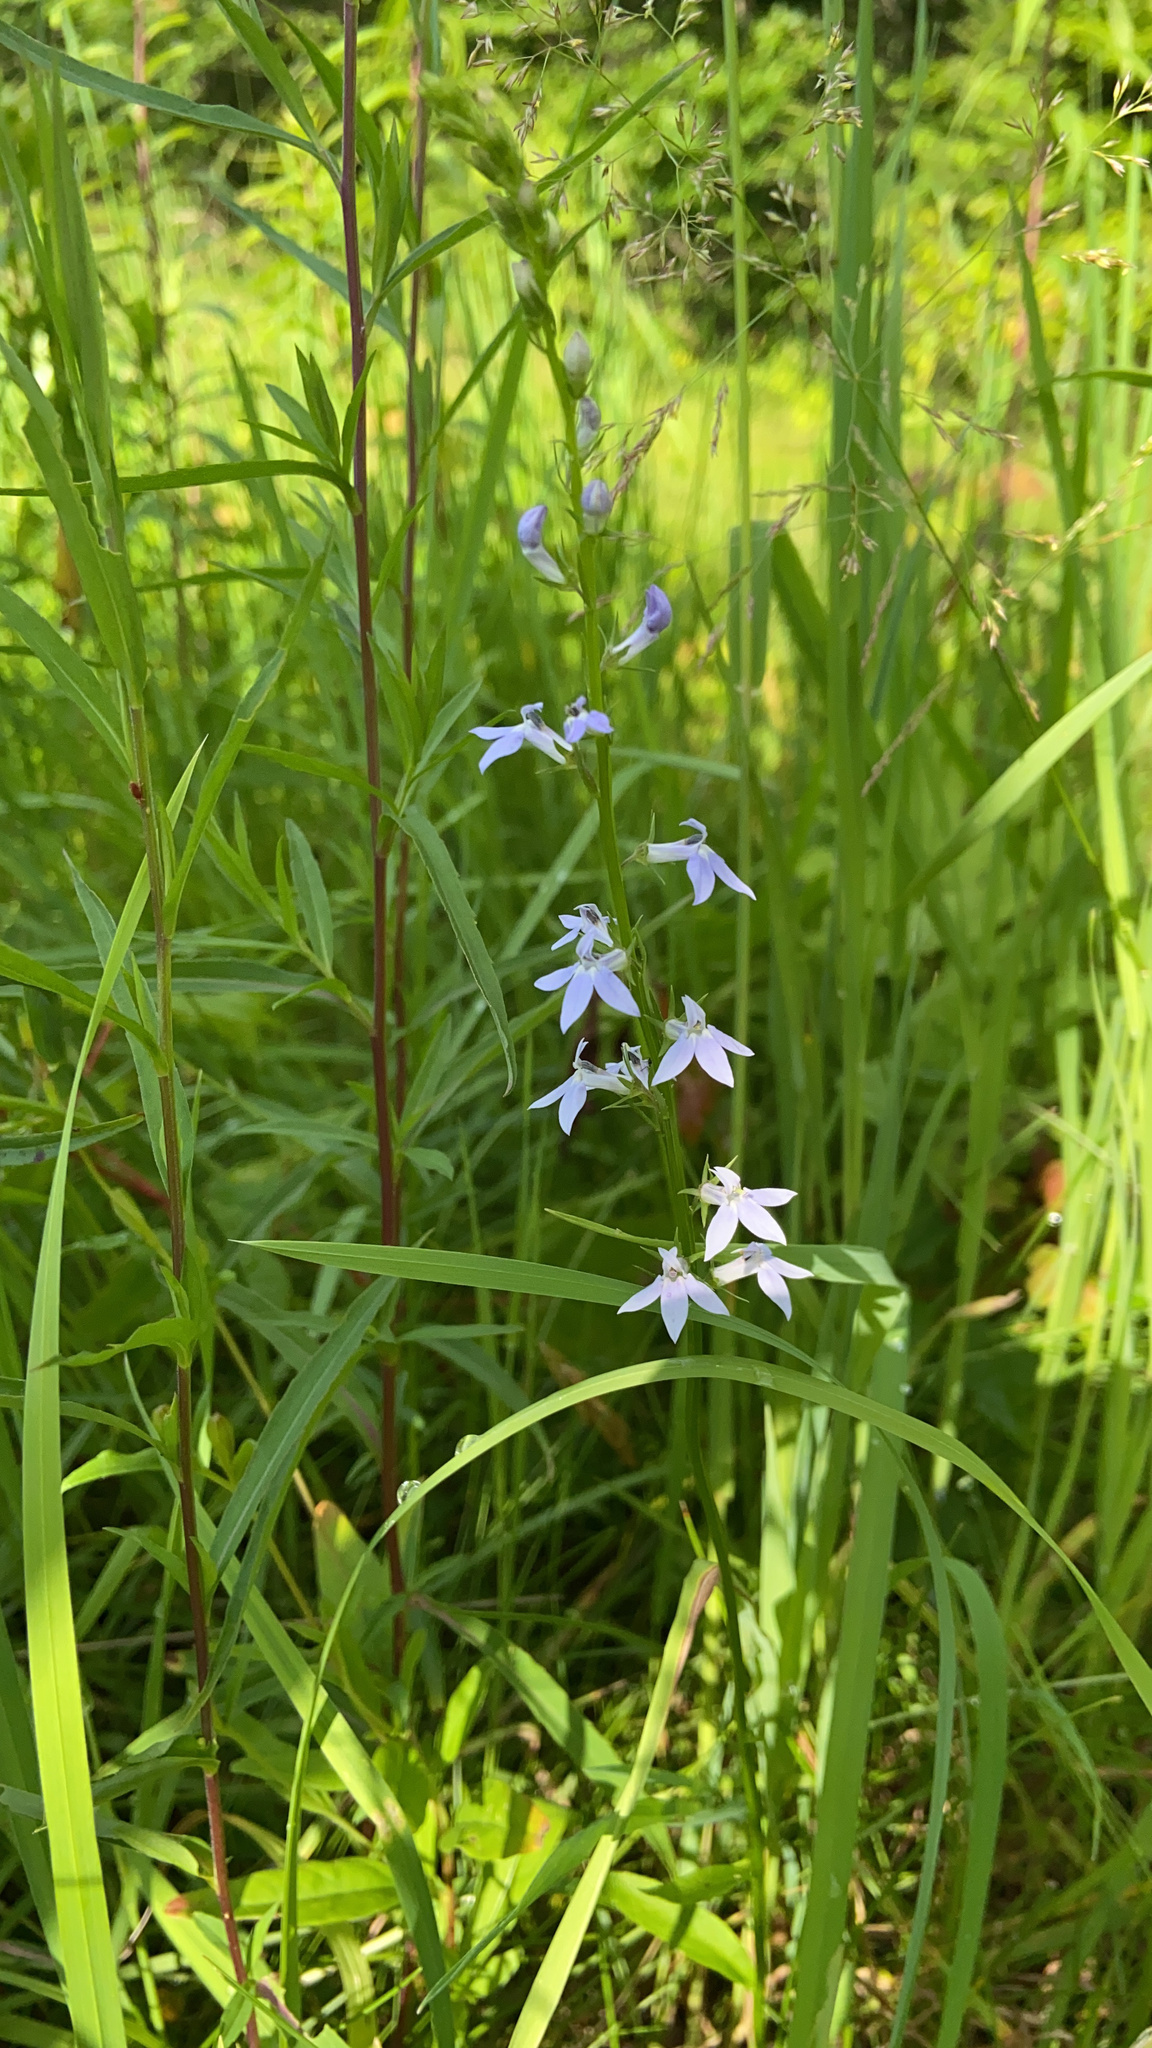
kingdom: Plantae
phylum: Tracheophyta
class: Magnoliopsida
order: Asterales
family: Campanulaceae
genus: Lobelia
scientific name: Lobelia spicata
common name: Pale-spike lobelia
